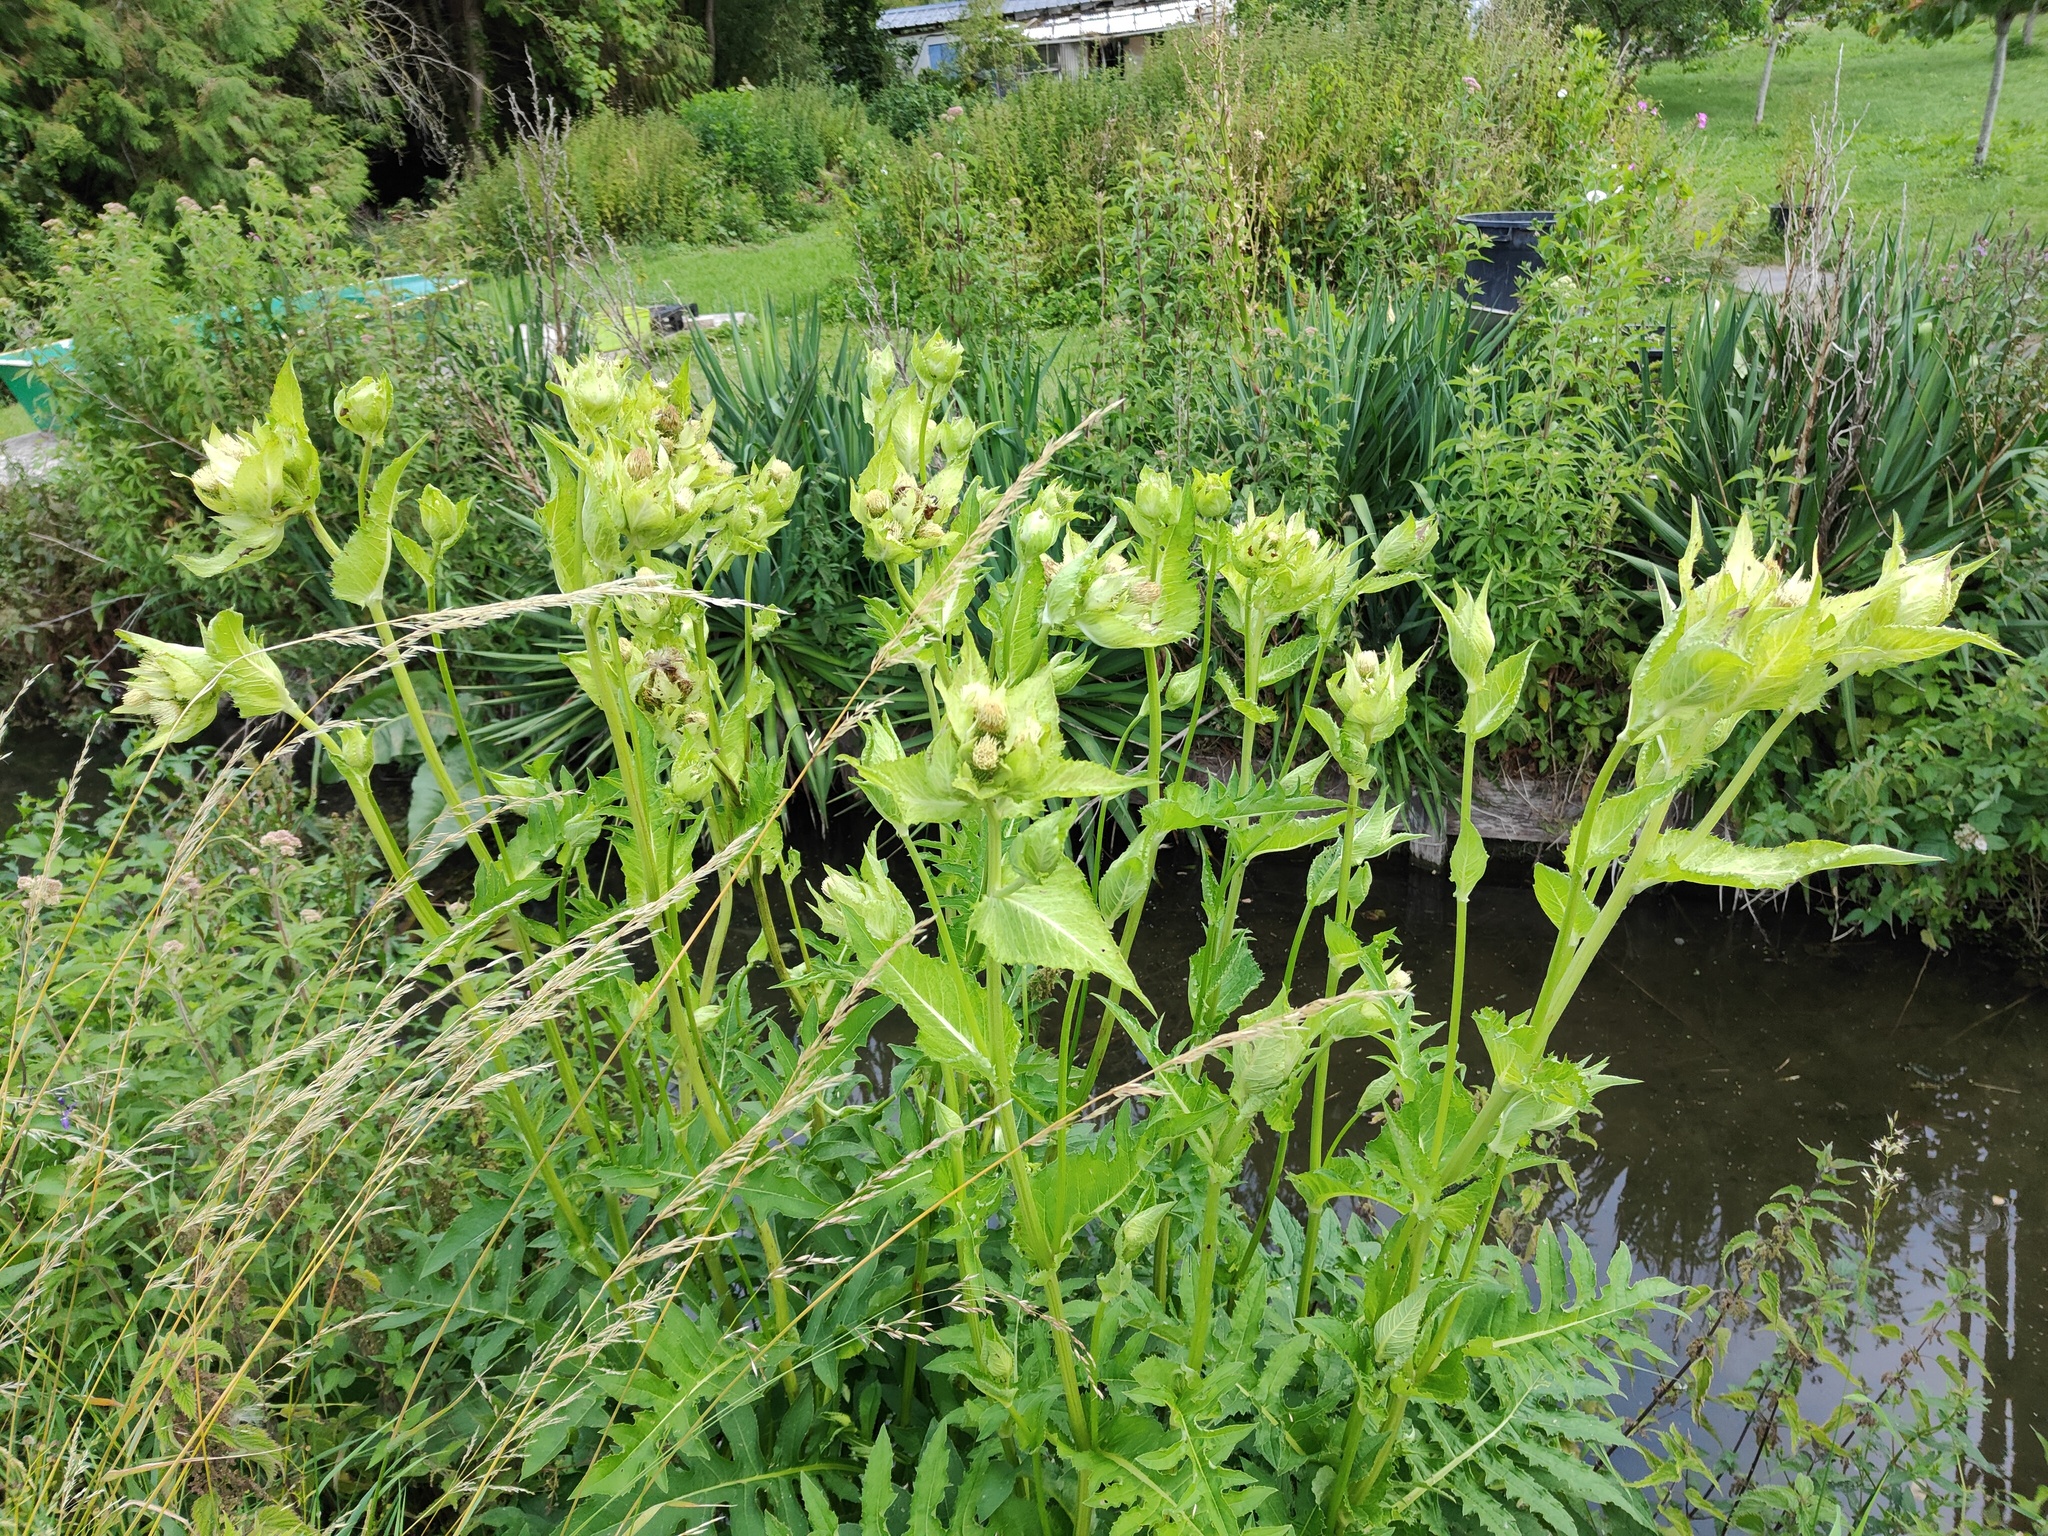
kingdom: Plantae
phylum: Tracheophyta
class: Magnoliopsida
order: Asterales
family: Asteraceae
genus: Cirsium
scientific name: Cirsium oleraceum
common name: Cabbage thistle
